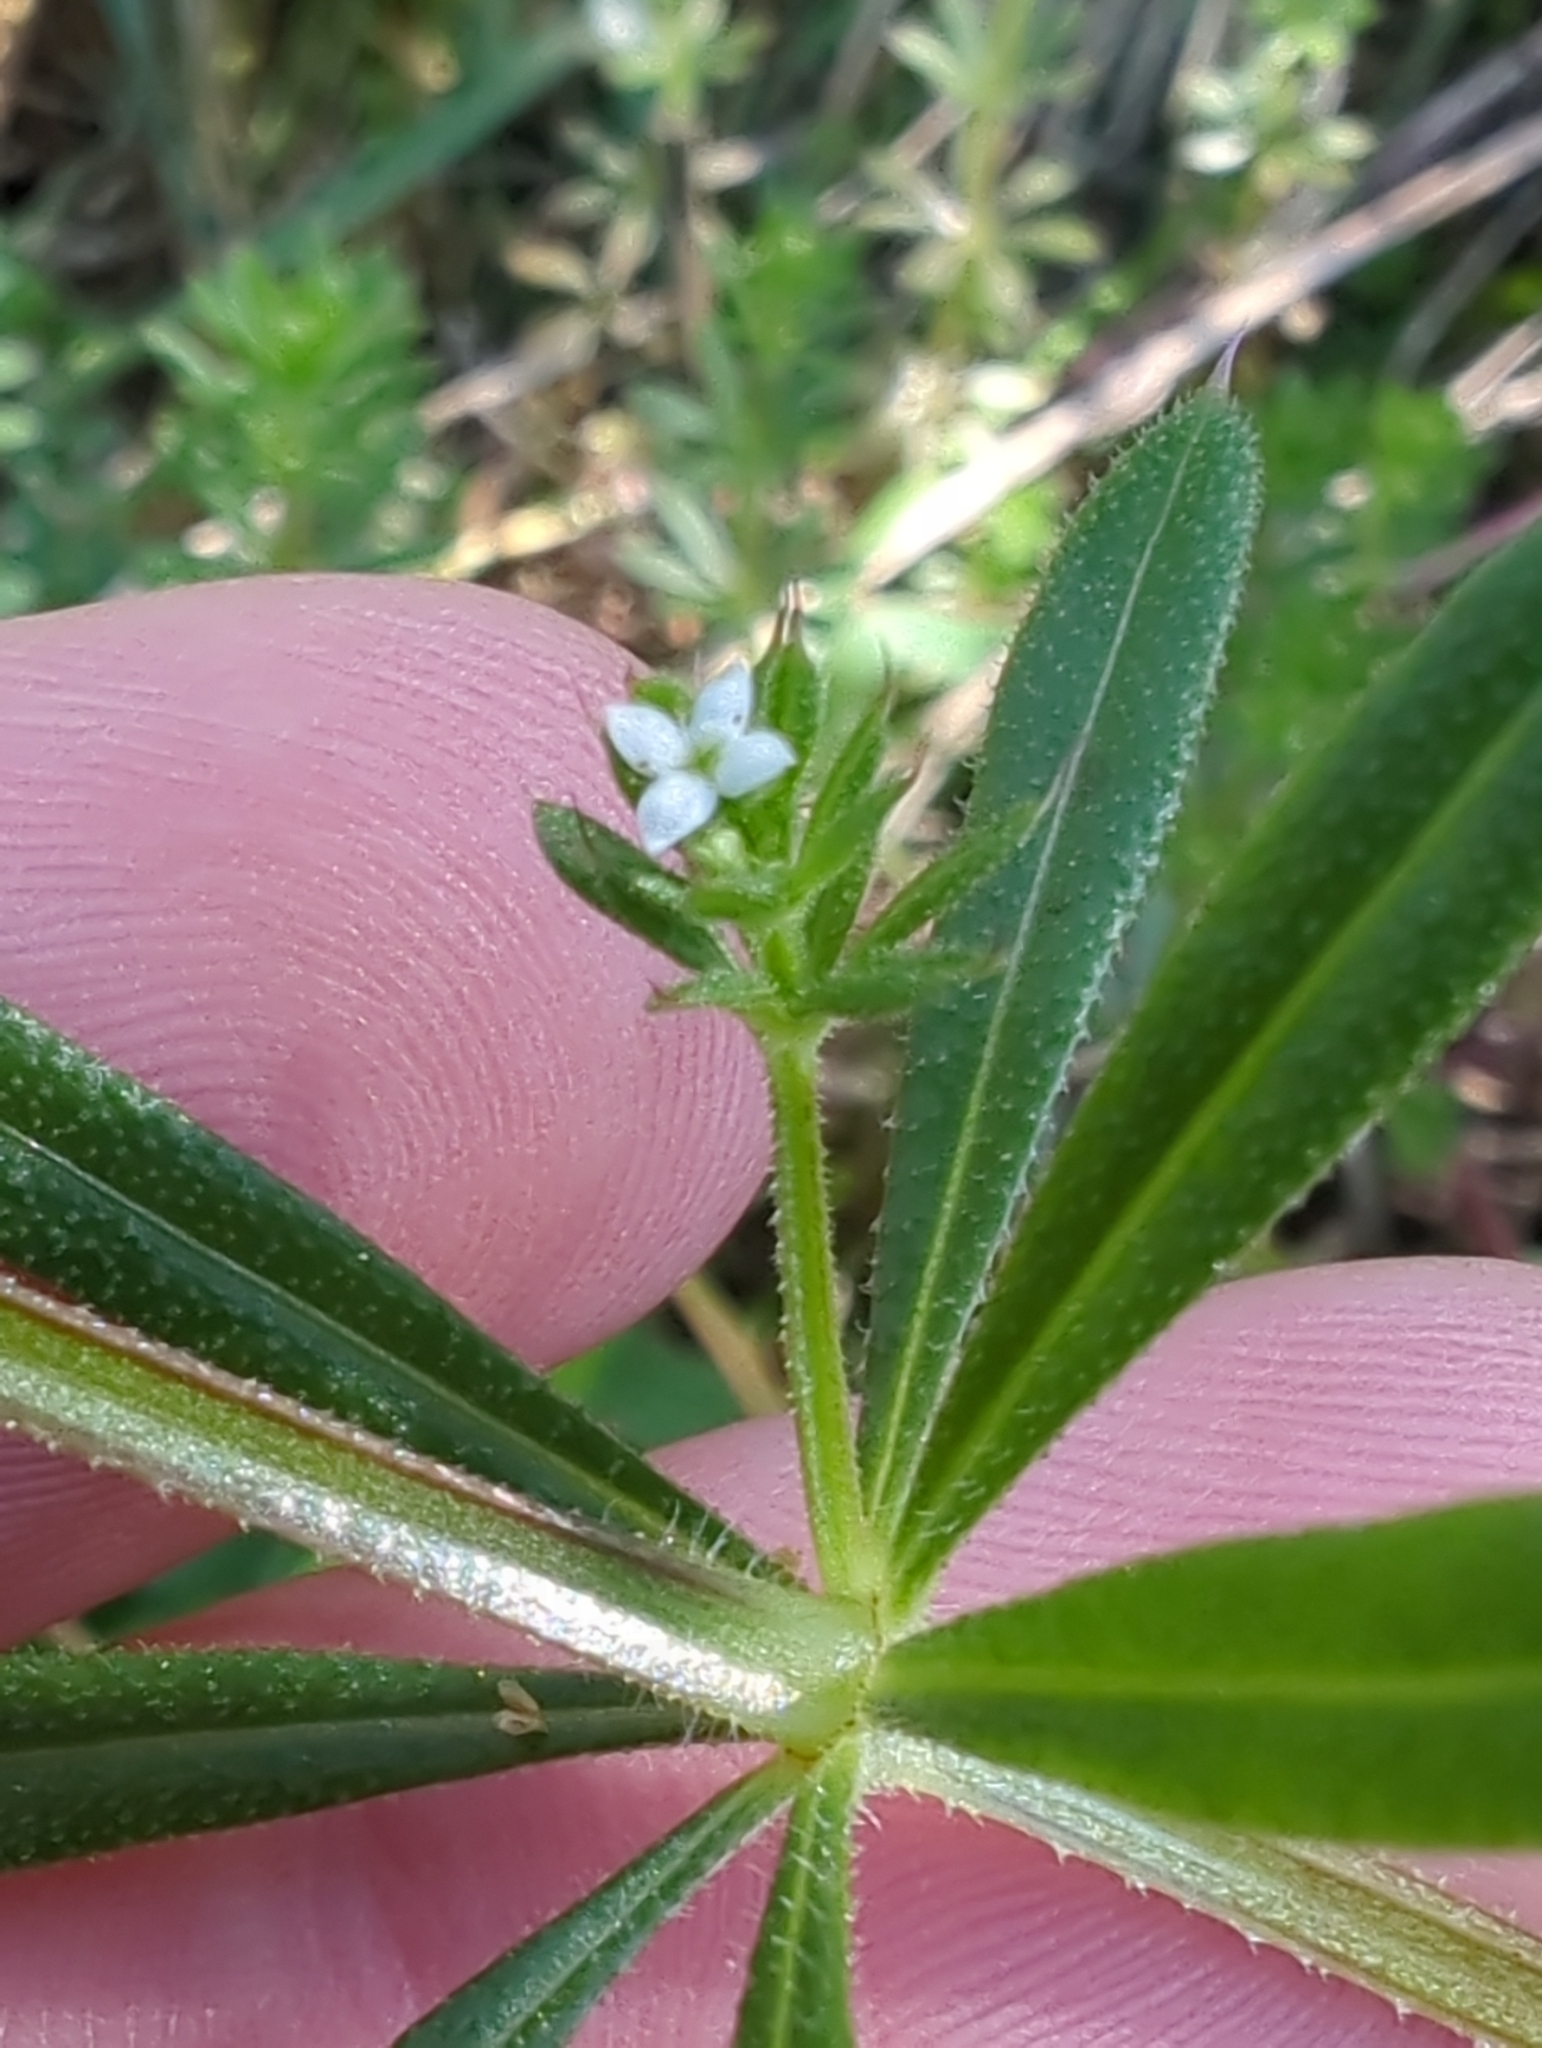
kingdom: Plantae
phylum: Tracheophyta
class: Magnoliopsida
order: Gentianales
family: Rubiaceae
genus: Galium
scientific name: Galium aparine
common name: Cleavers
